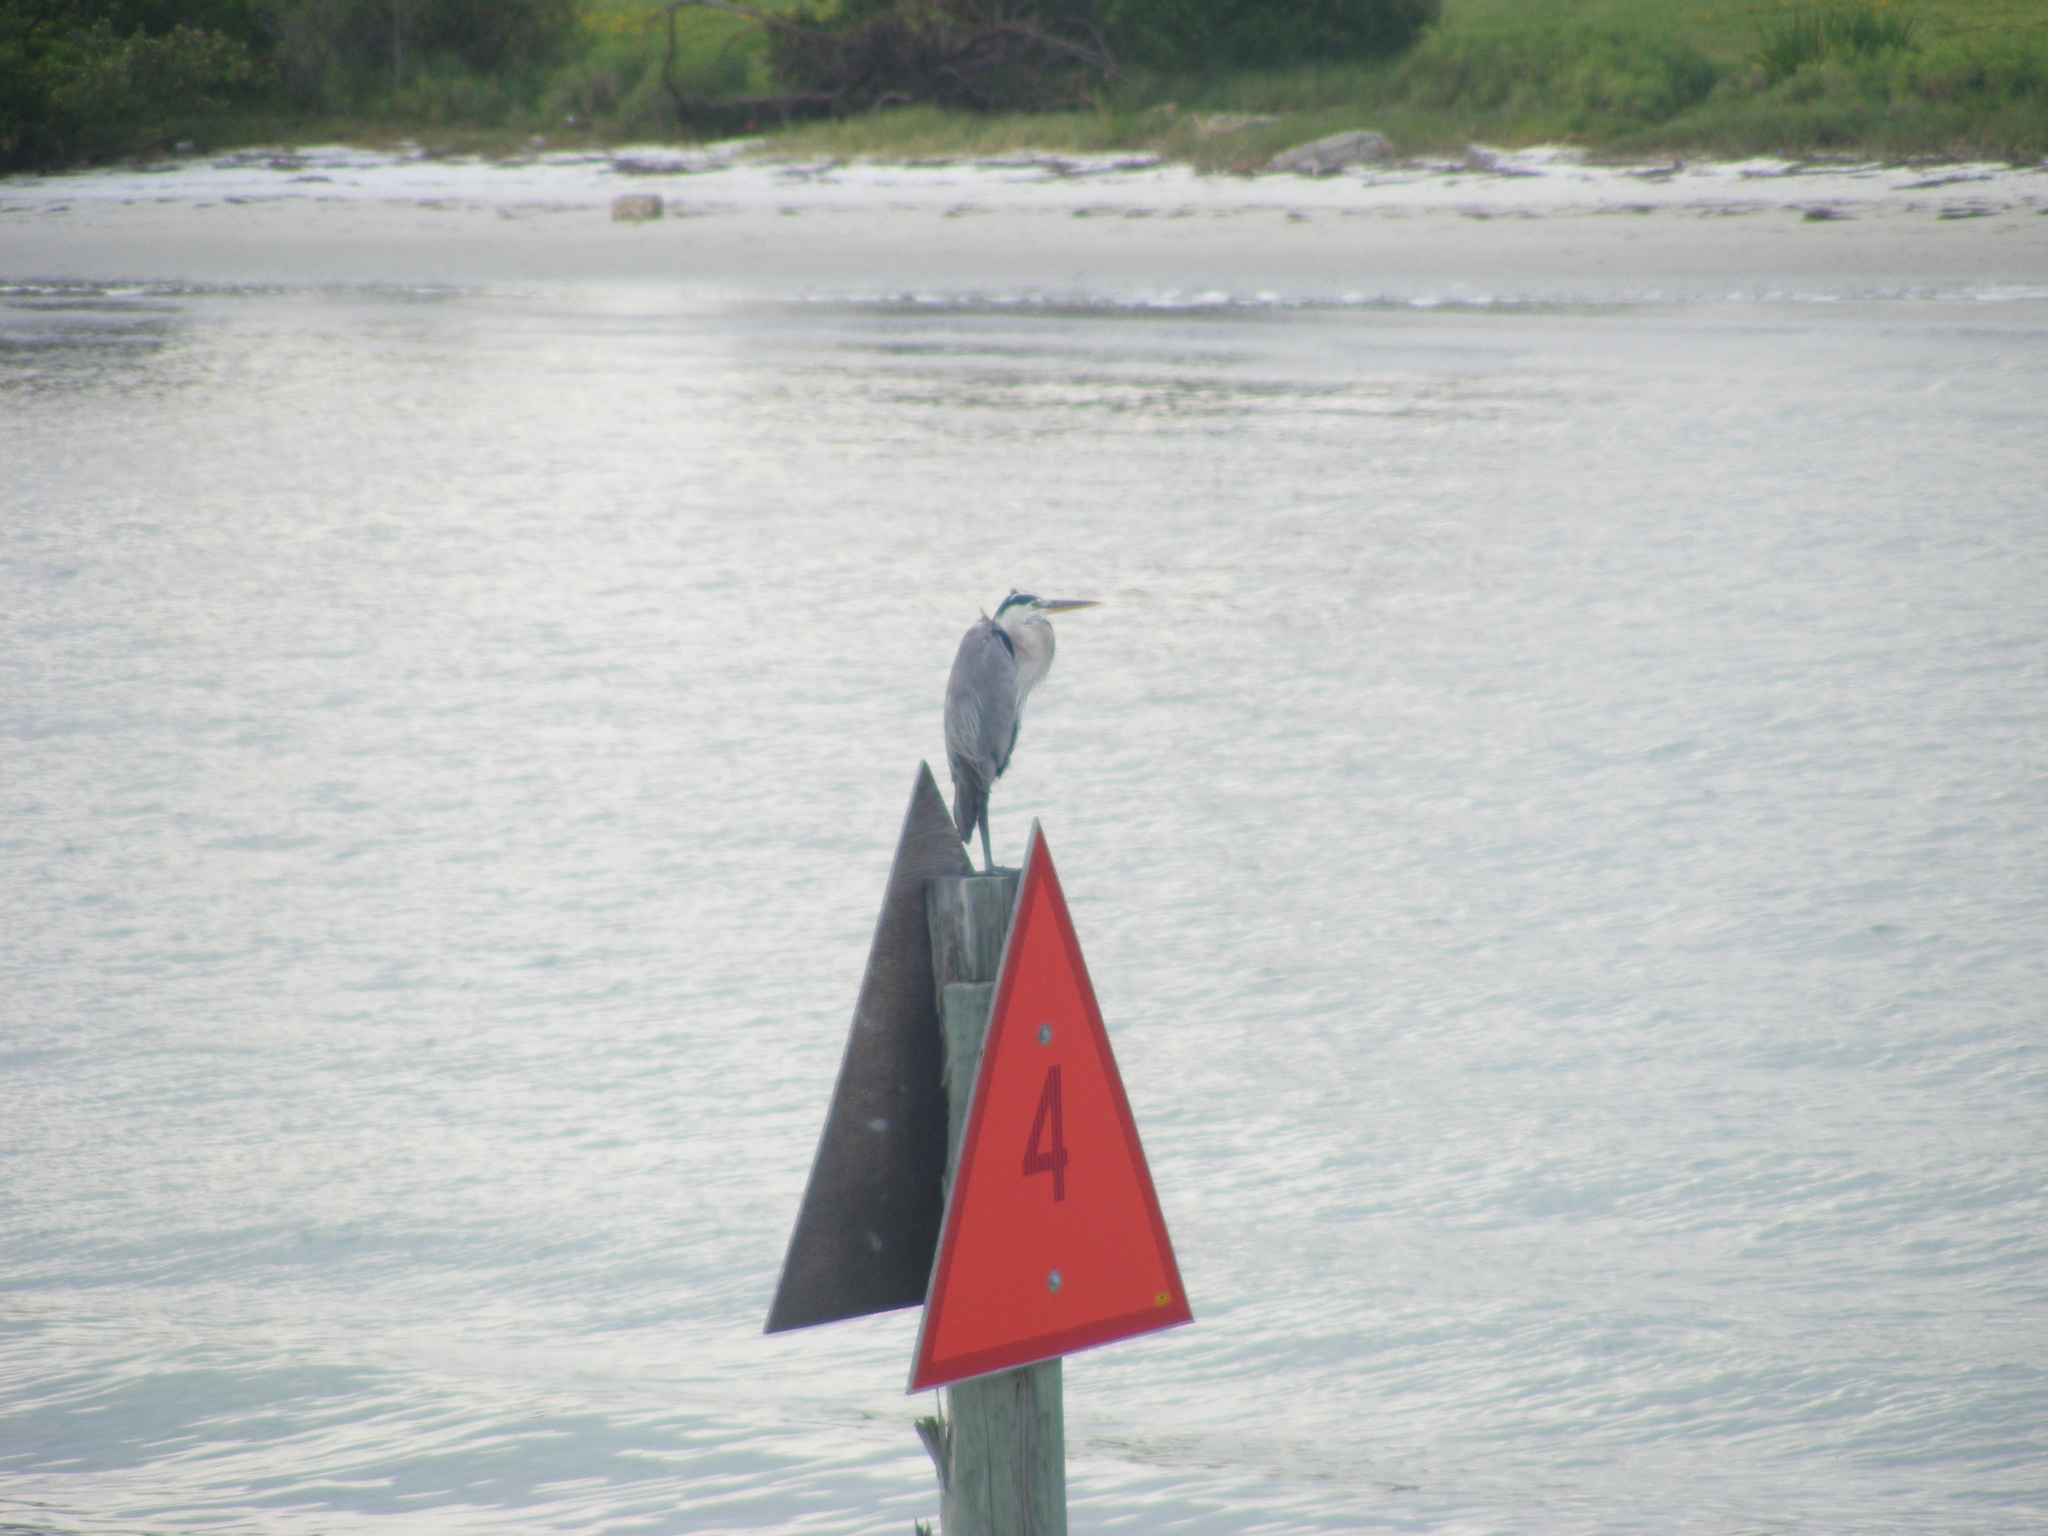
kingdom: Animalia
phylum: Chordata
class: Aves
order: Pelecaniformes
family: Ardeidae
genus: Ardea
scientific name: Ardea herodias
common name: Great blue heron
